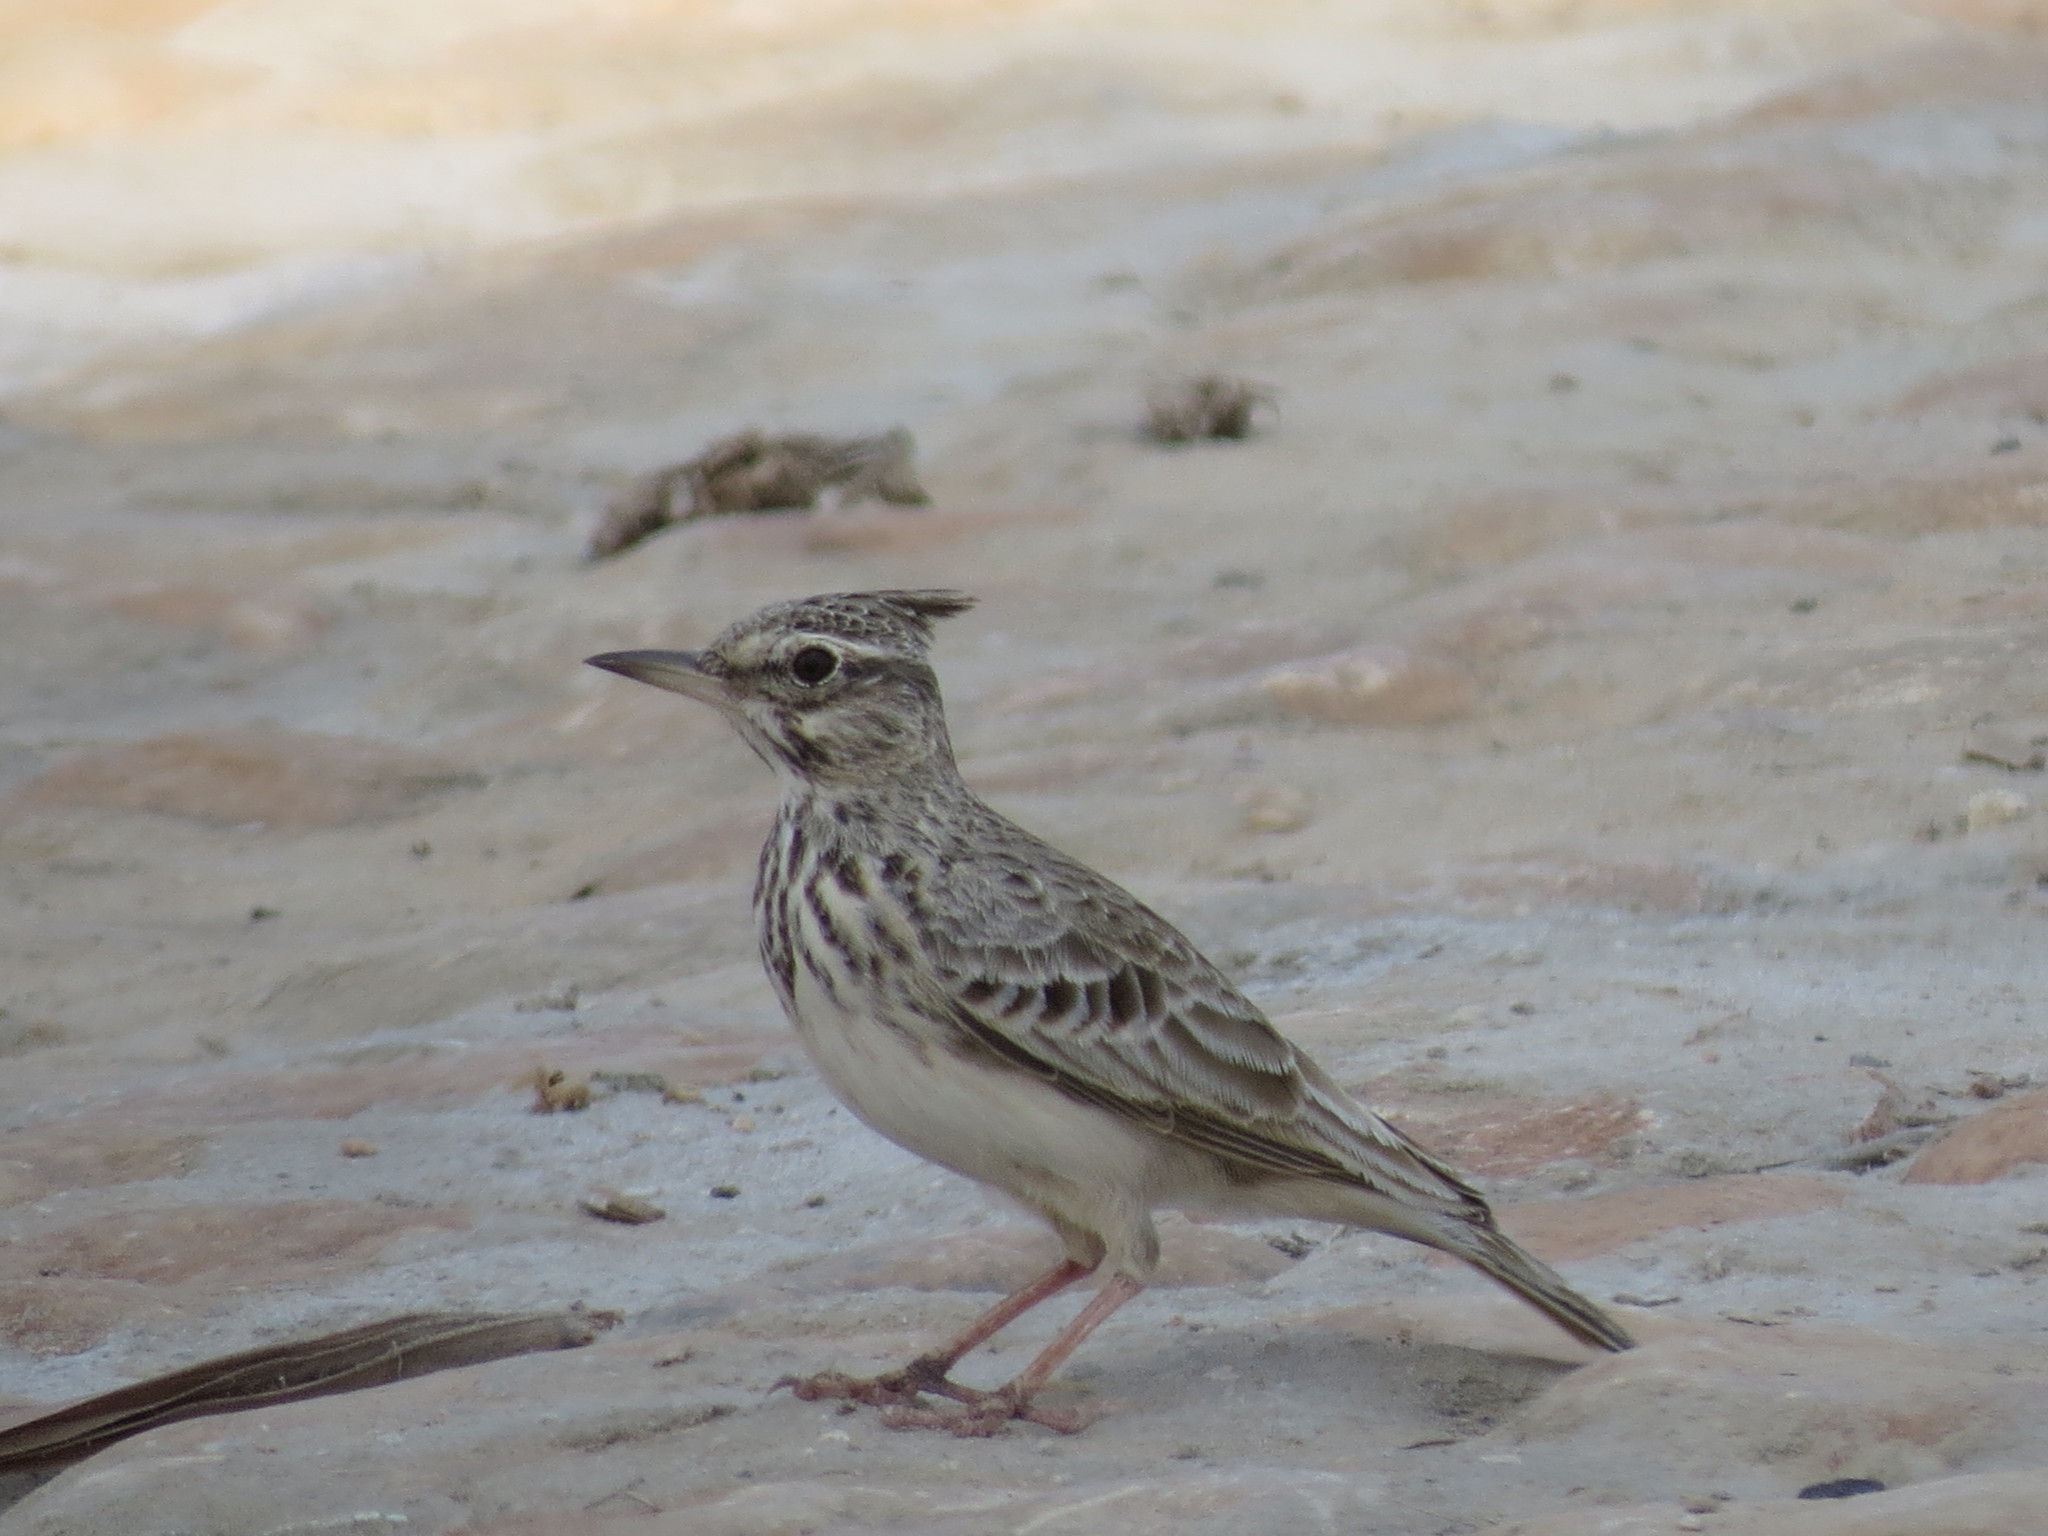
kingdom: Animalia
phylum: Chordata
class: Aves
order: Passeriformes
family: Alaudidae
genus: Galerida
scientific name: Galerida cristata
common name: Crested lark
